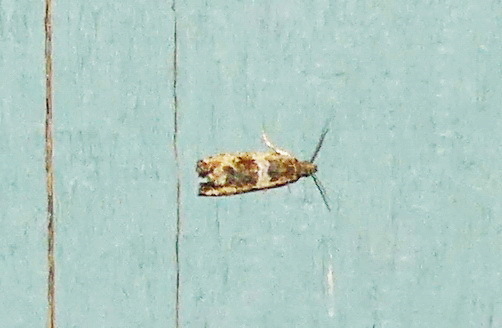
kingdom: Animalia
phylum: Arthropoda
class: Insecta
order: Lepidoptera
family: Tortricidae
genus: Olethreutes
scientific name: Olethreutes fasciatana
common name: Banded olethreutes moth
